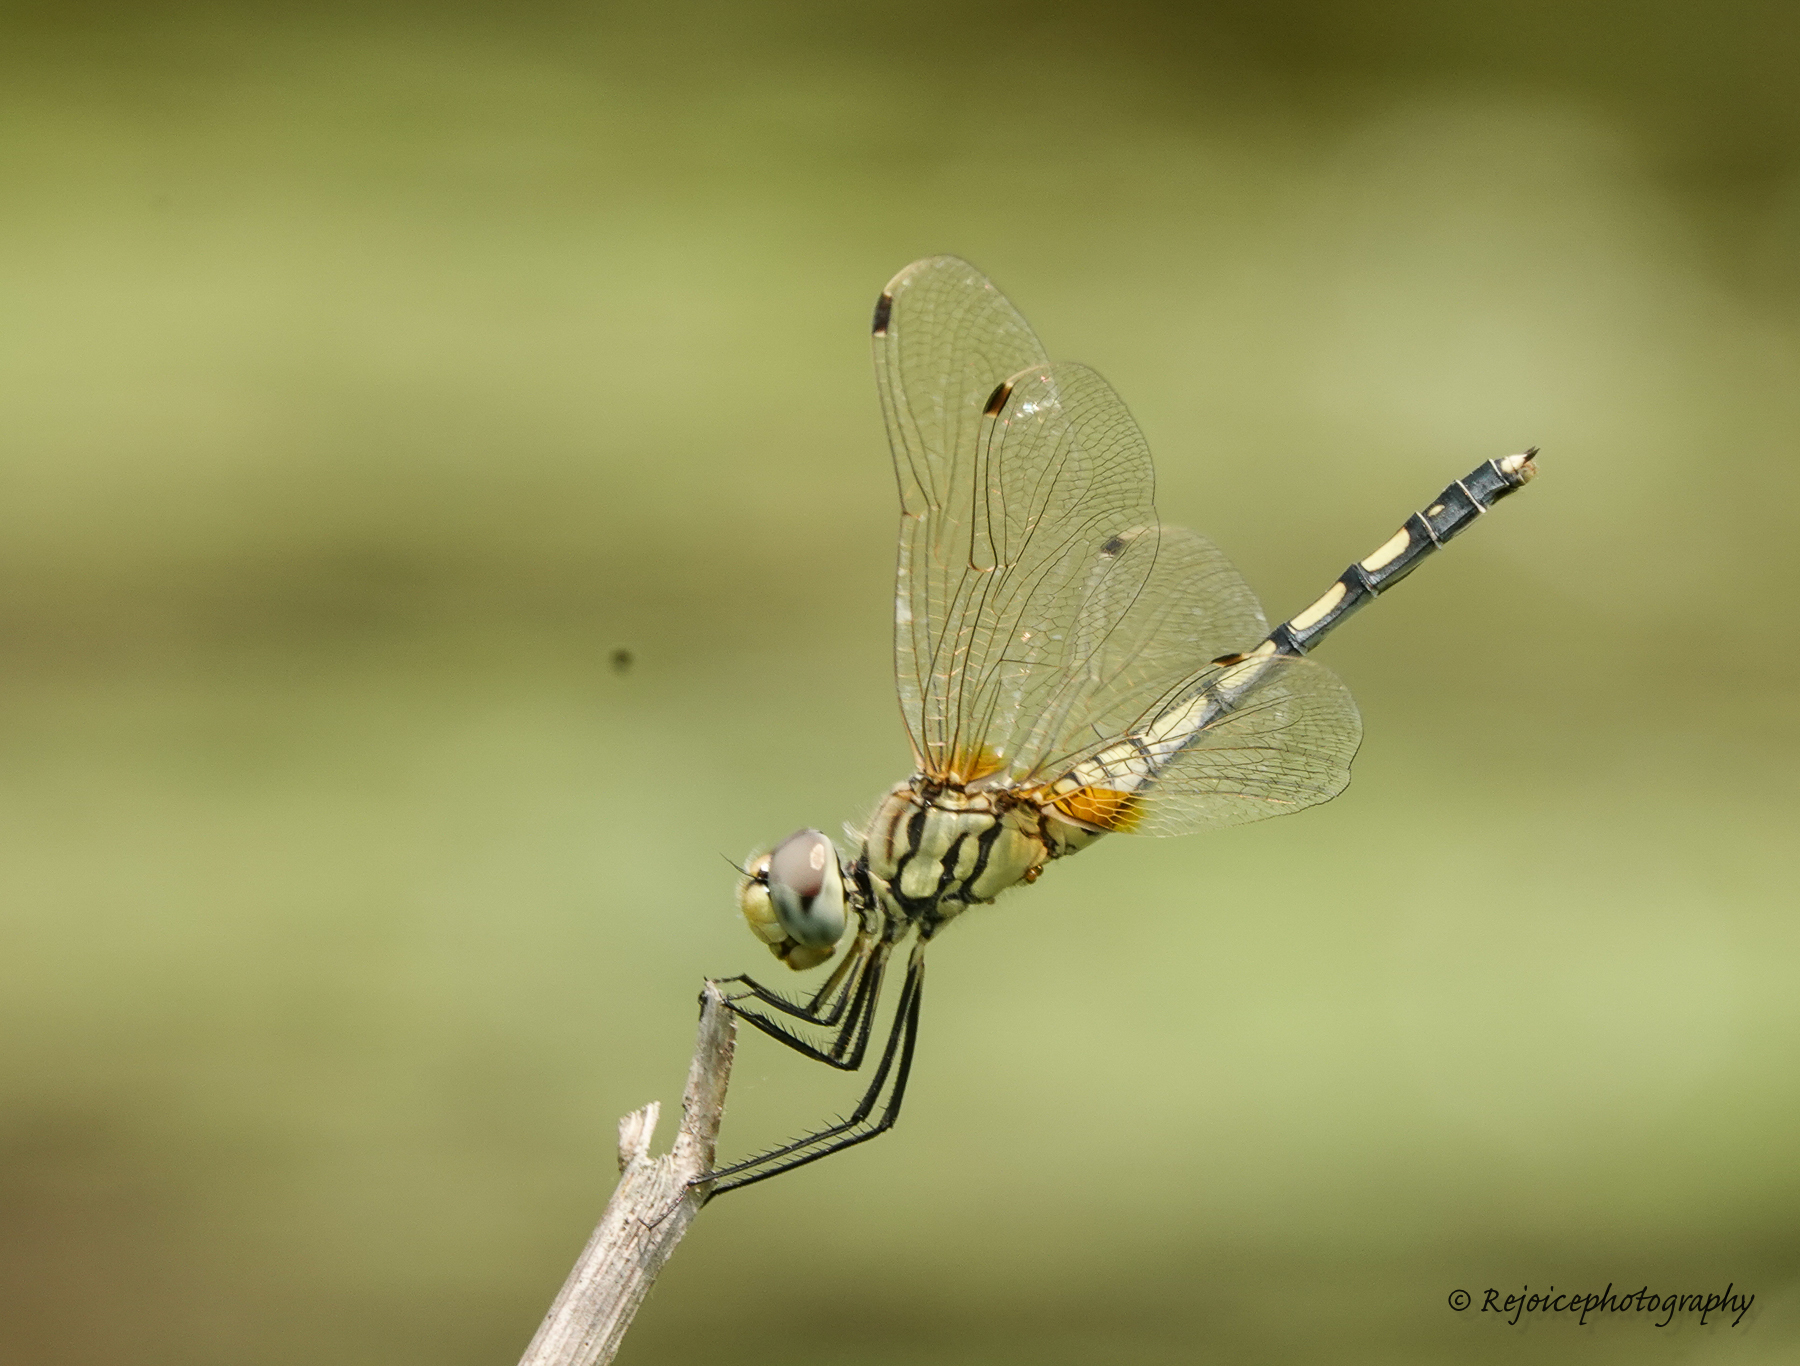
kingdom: Animalia
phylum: Arthropoda
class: Insecta
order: Odonata
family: Libellulidae
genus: Trithemis
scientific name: Trithemis pallidinervis
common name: Dancing dropwing
